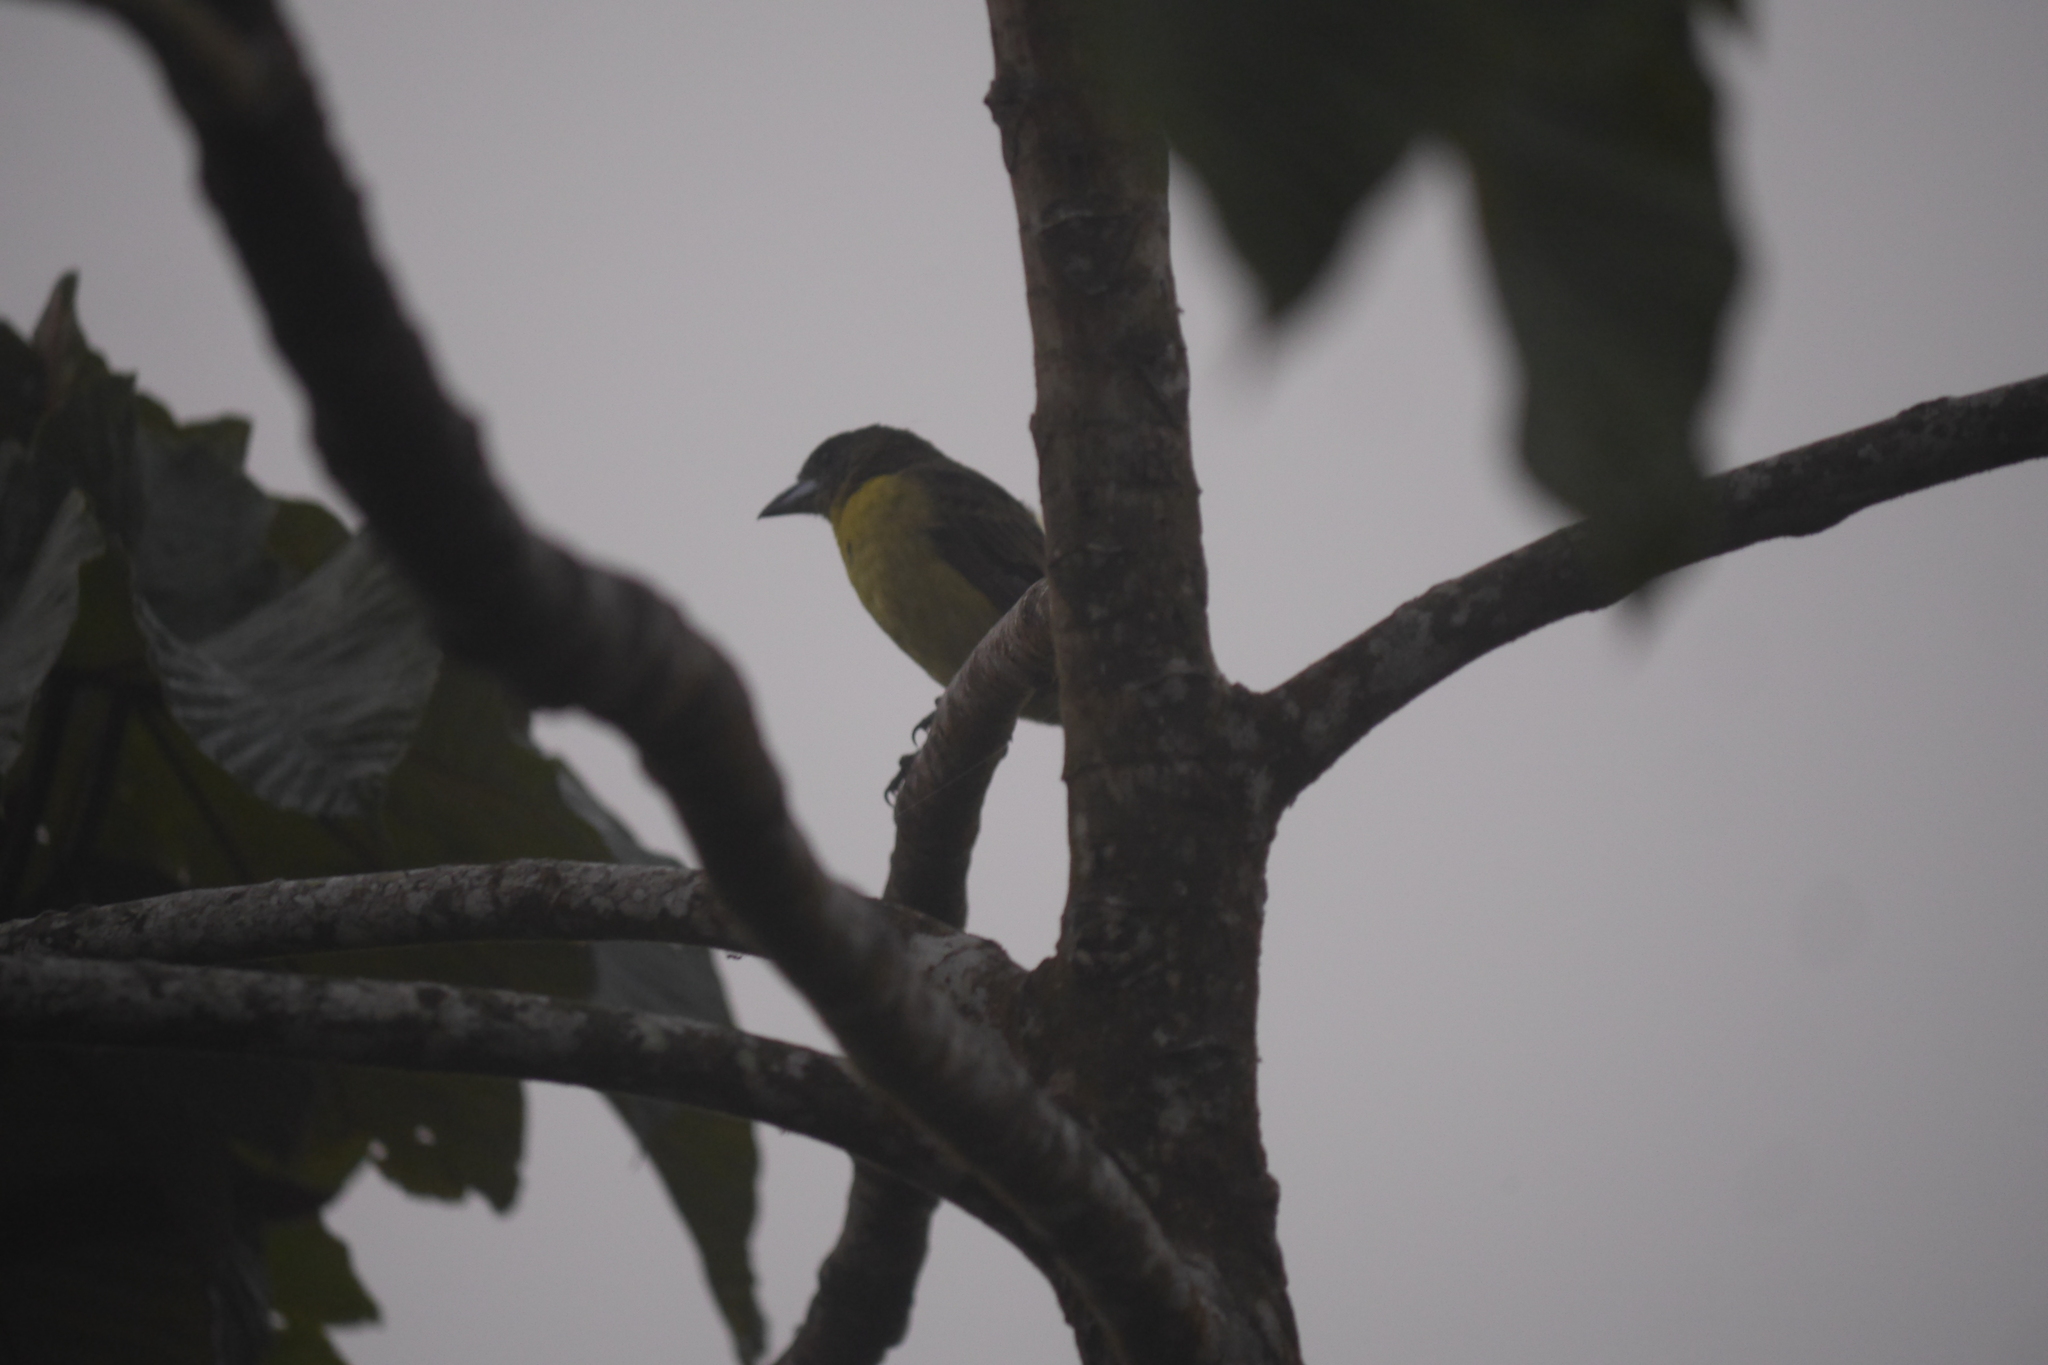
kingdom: Animalia
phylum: Chordata
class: Aves
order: Passeriformes
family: Thraupidae
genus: Ramphocelus
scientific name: Ramphocelus flammigerus
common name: Flame-rumped tanager
